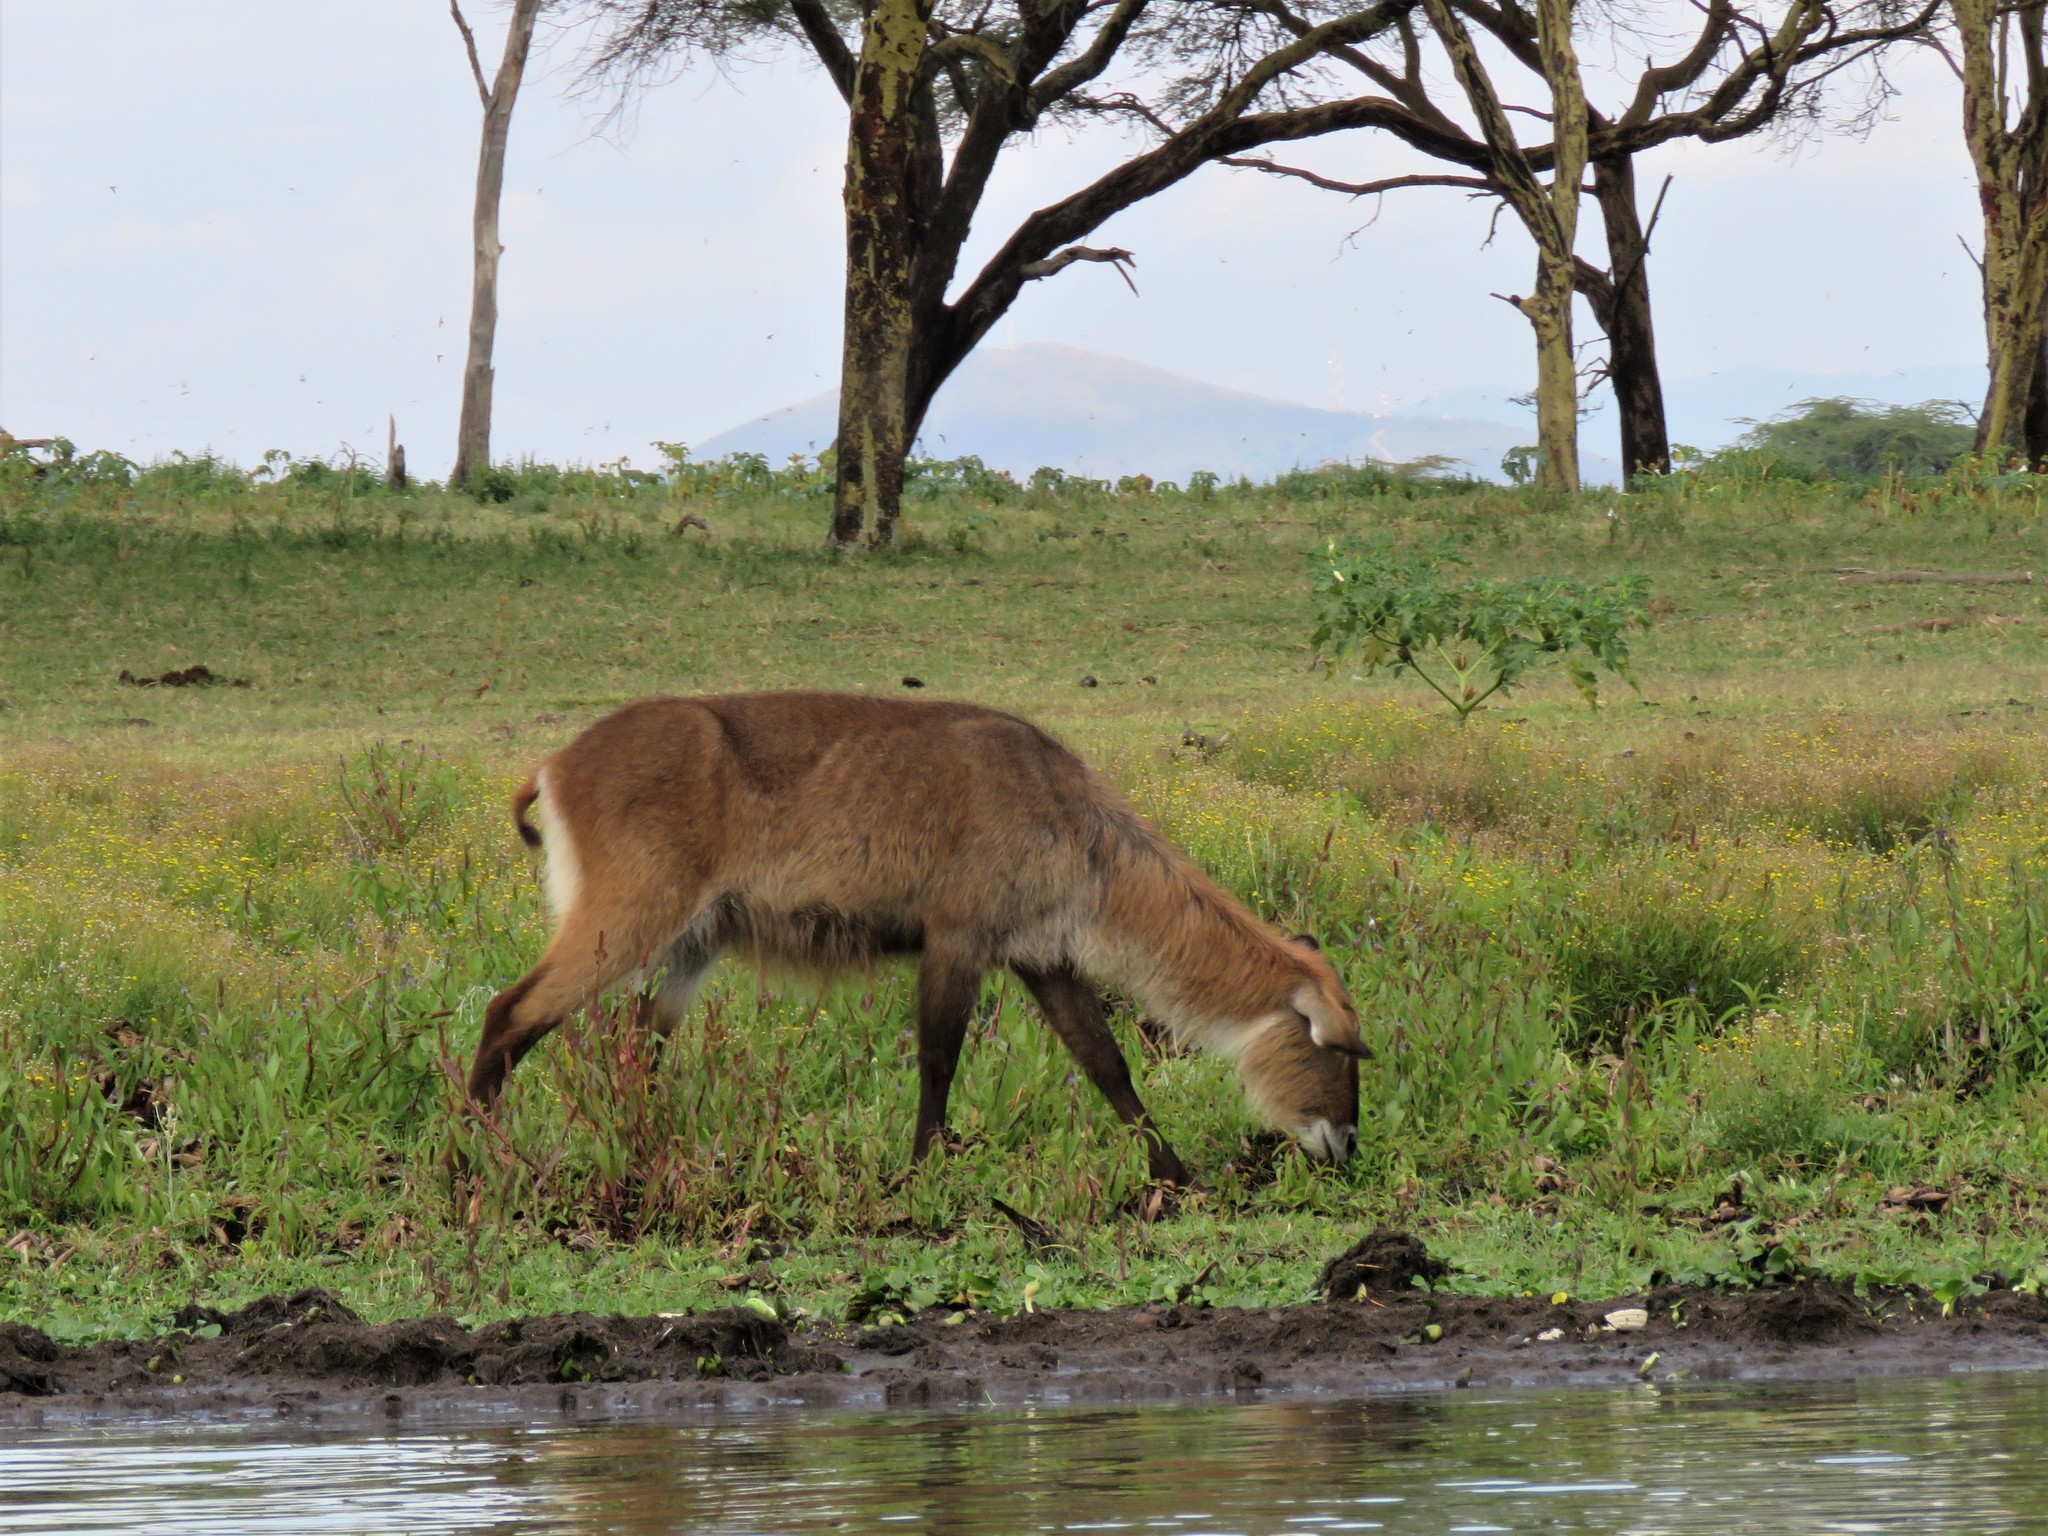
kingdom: Animalia
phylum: Chordata
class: Mammalia
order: Artiodactyla
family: Bovidae
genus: Kobus
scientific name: Kobus ellipsiprymnus
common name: Waterbuck
